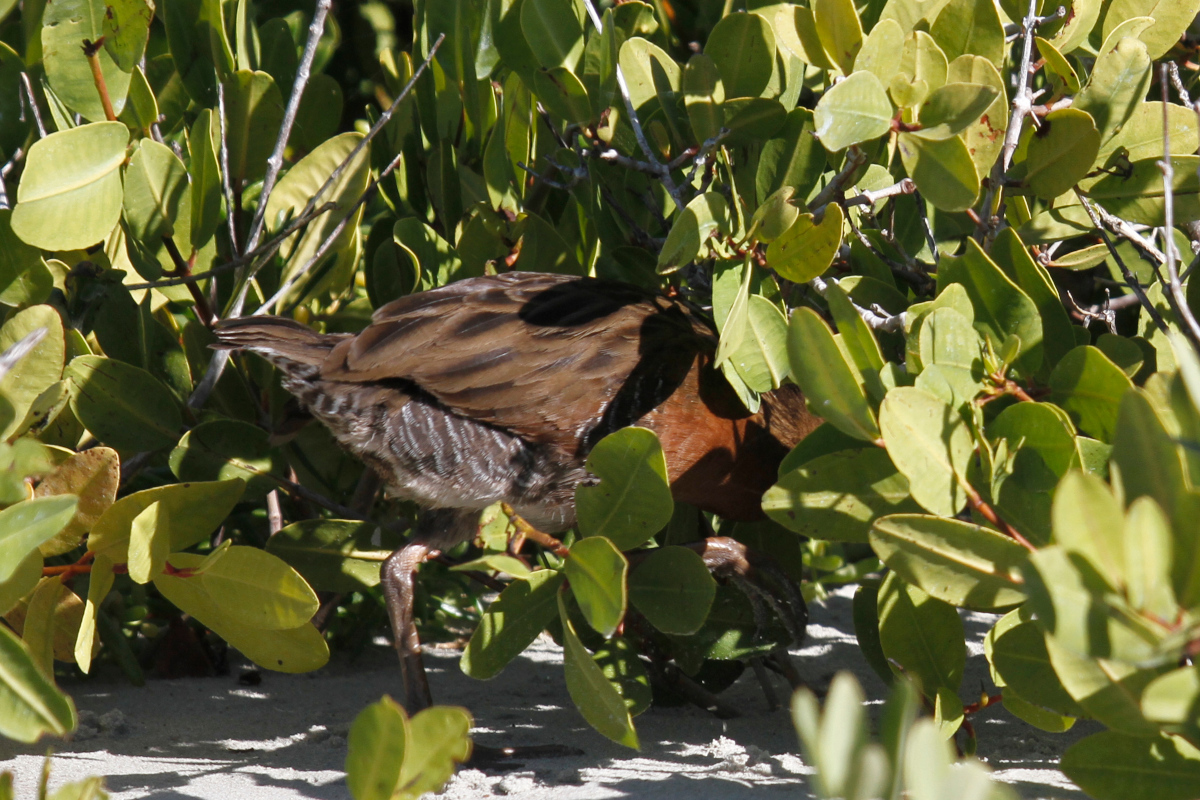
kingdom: Animalia
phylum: Chordata
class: Aves
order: Gruiformes
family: Rallidae
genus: Rallus
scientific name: Rallus obsoletus
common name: Ridgway's rail
